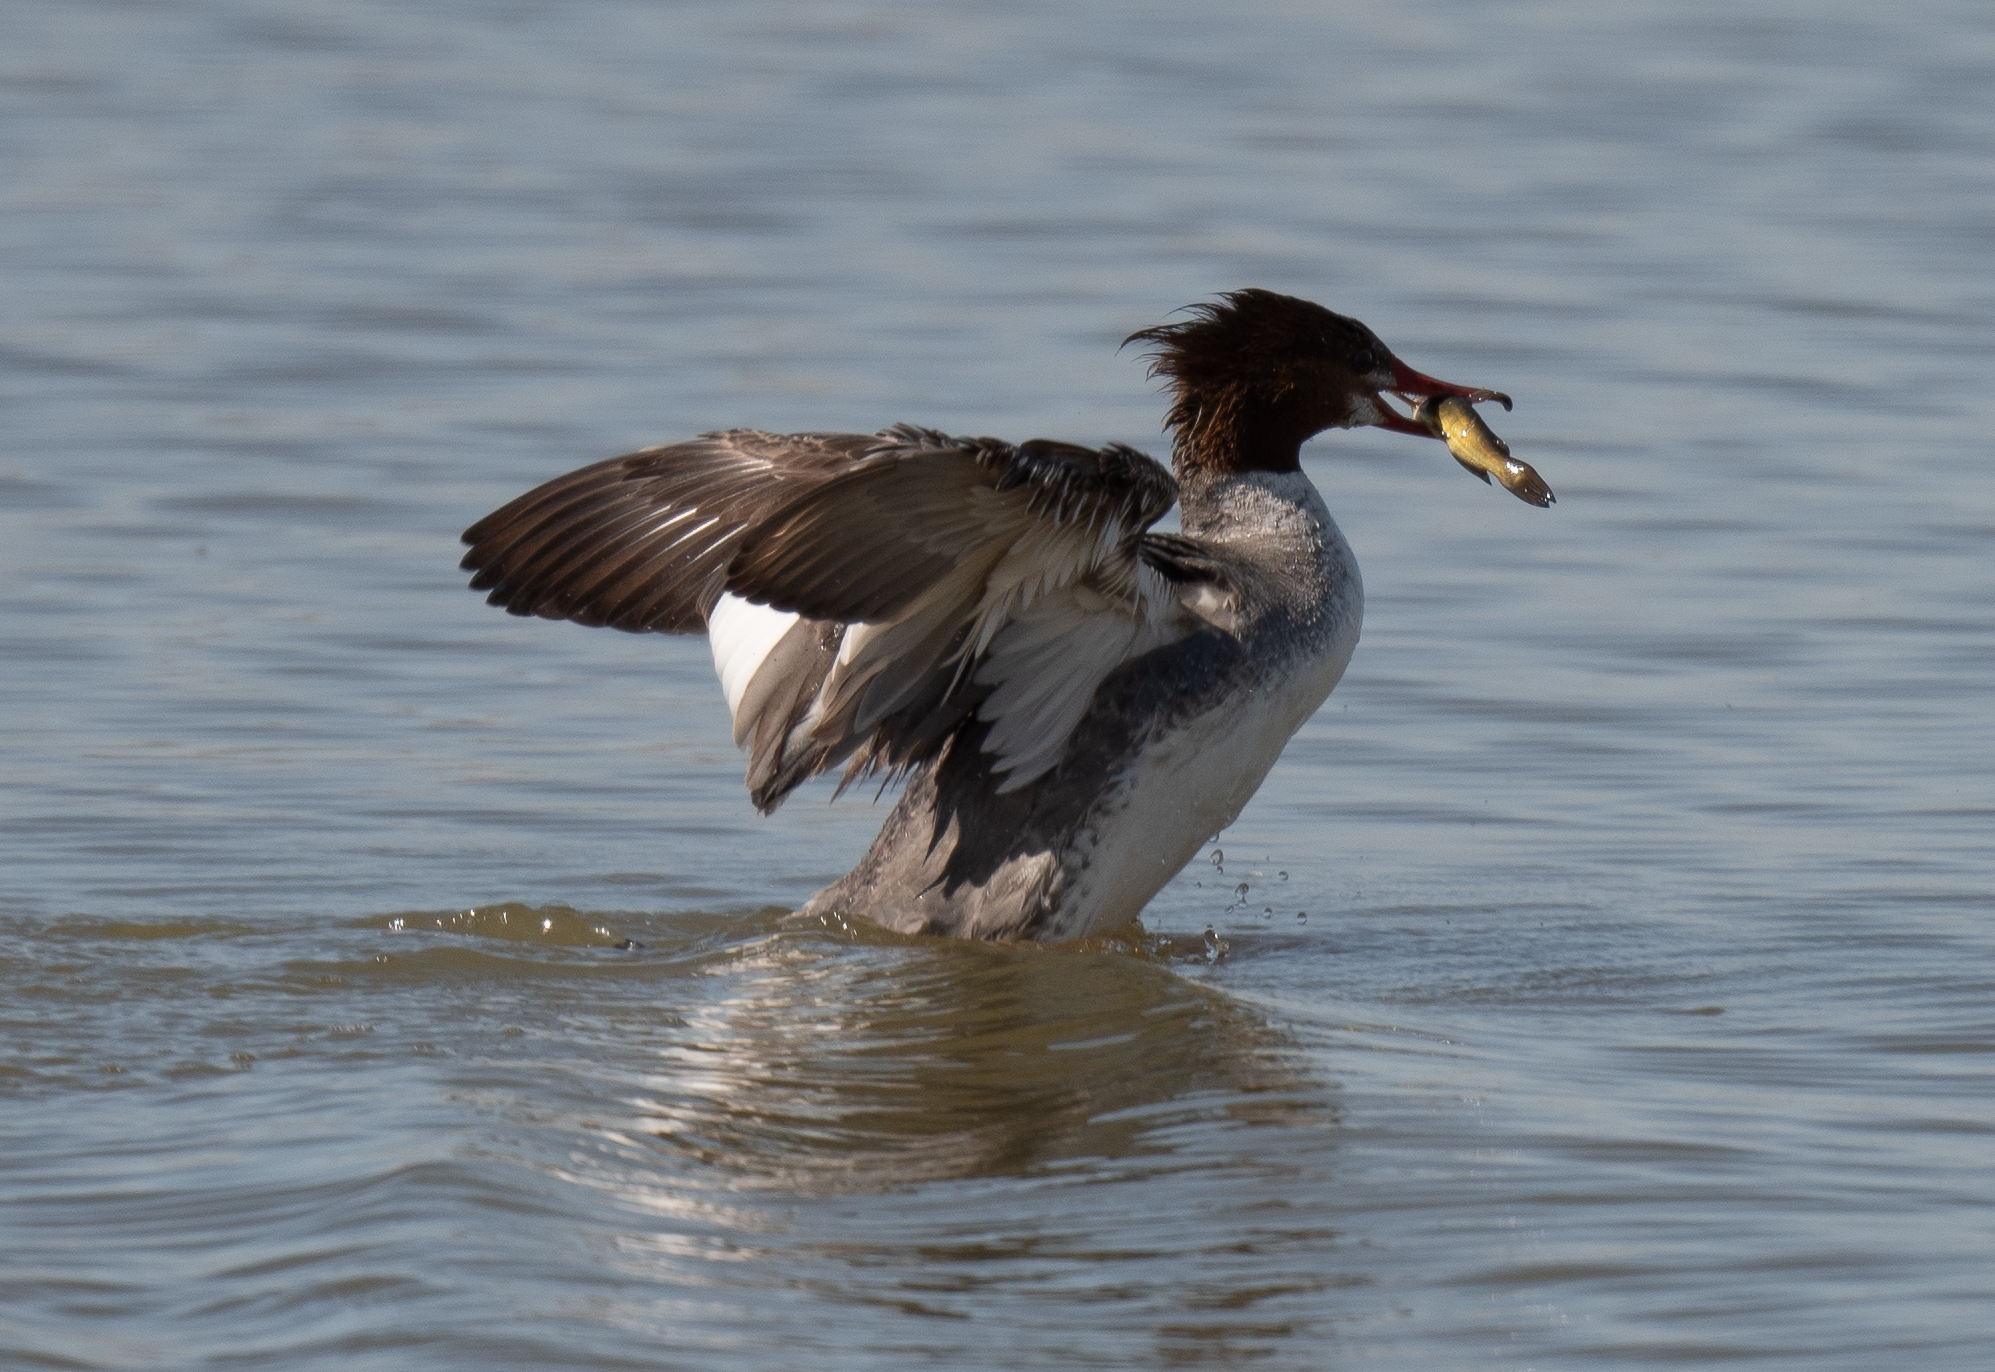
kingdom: Animalia
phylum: Chordata
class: Aves
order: Anseriformes
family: Anatidae
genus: Mergus
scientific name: Mergus merganser
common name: Common merganser
